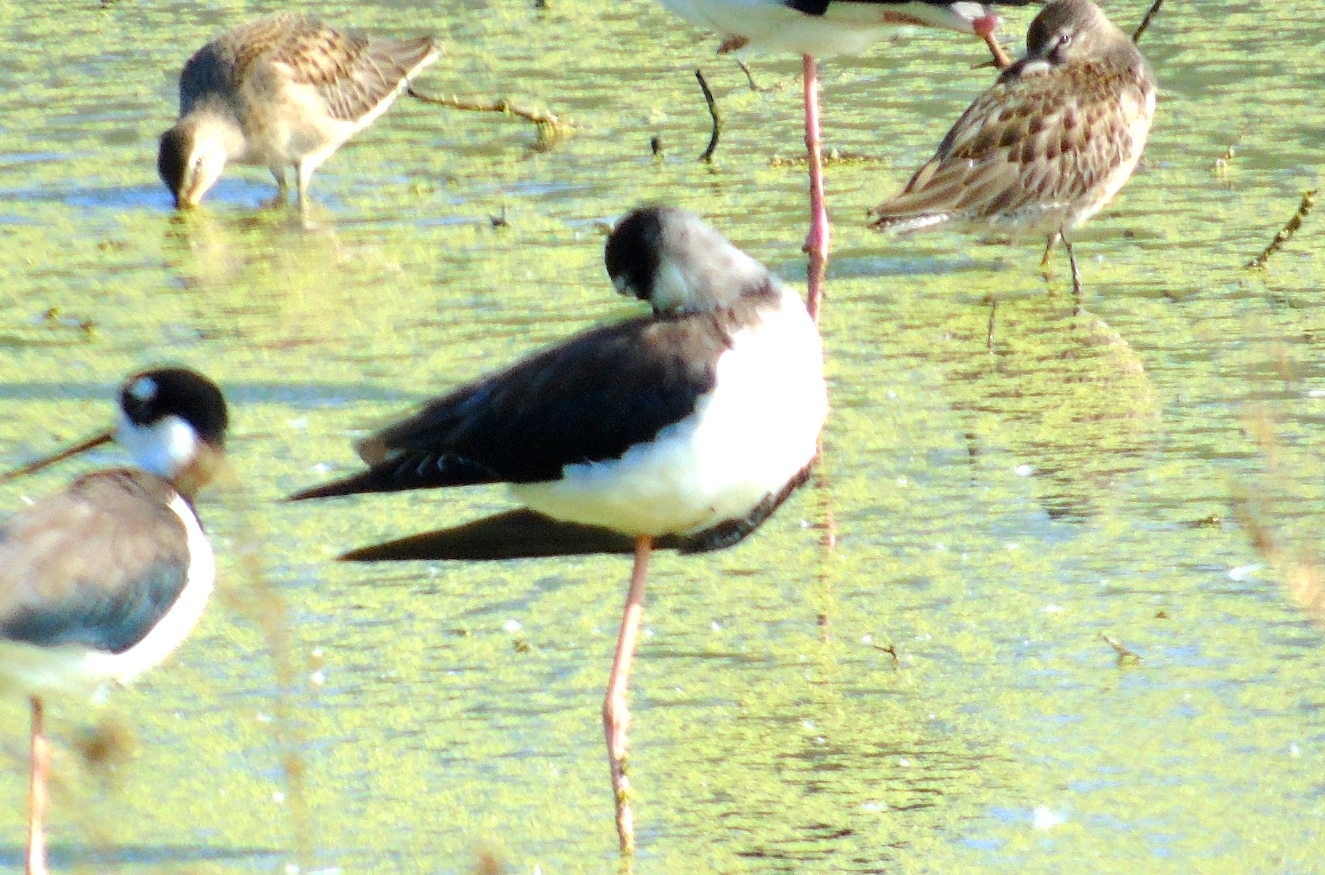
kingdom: Animalia
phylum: Chordata
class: Aves
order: Charadriiformes
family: Recurvirostridae
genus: Himantopus
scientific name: Himantopus mexicanus
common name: Black-necked stilt
